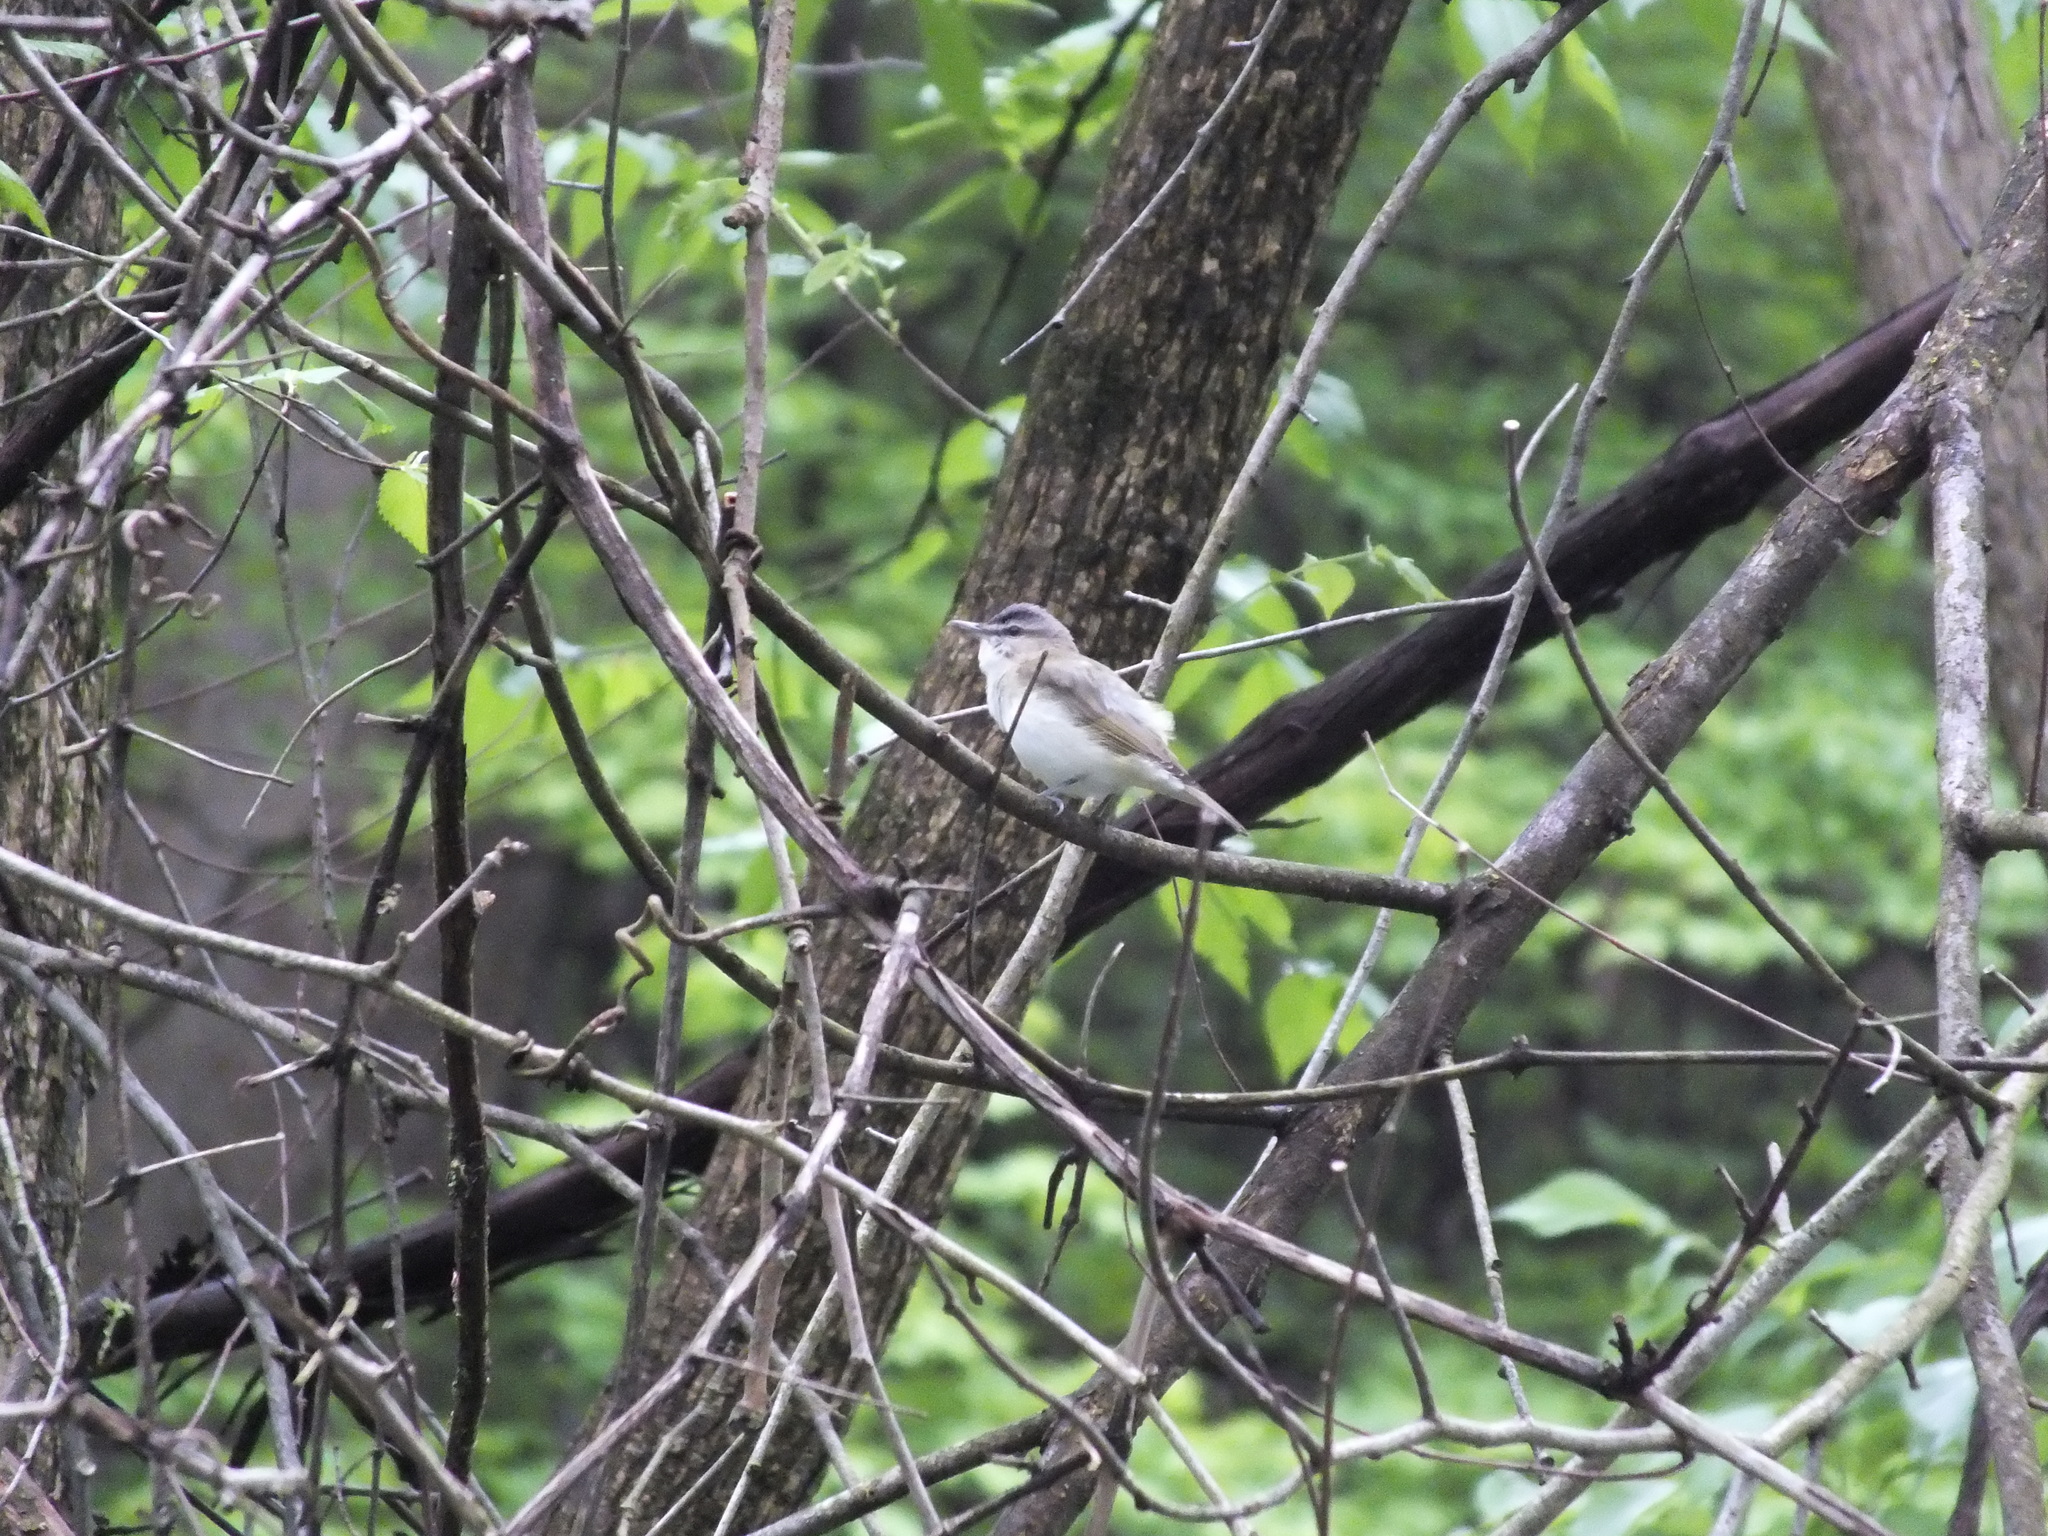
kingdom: Animalia
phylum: Chordata
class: Aves
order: Passeriformes
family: Vireonidae
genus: Vireo
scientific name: Vireo olivaceus
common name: Red-eyed vireo
